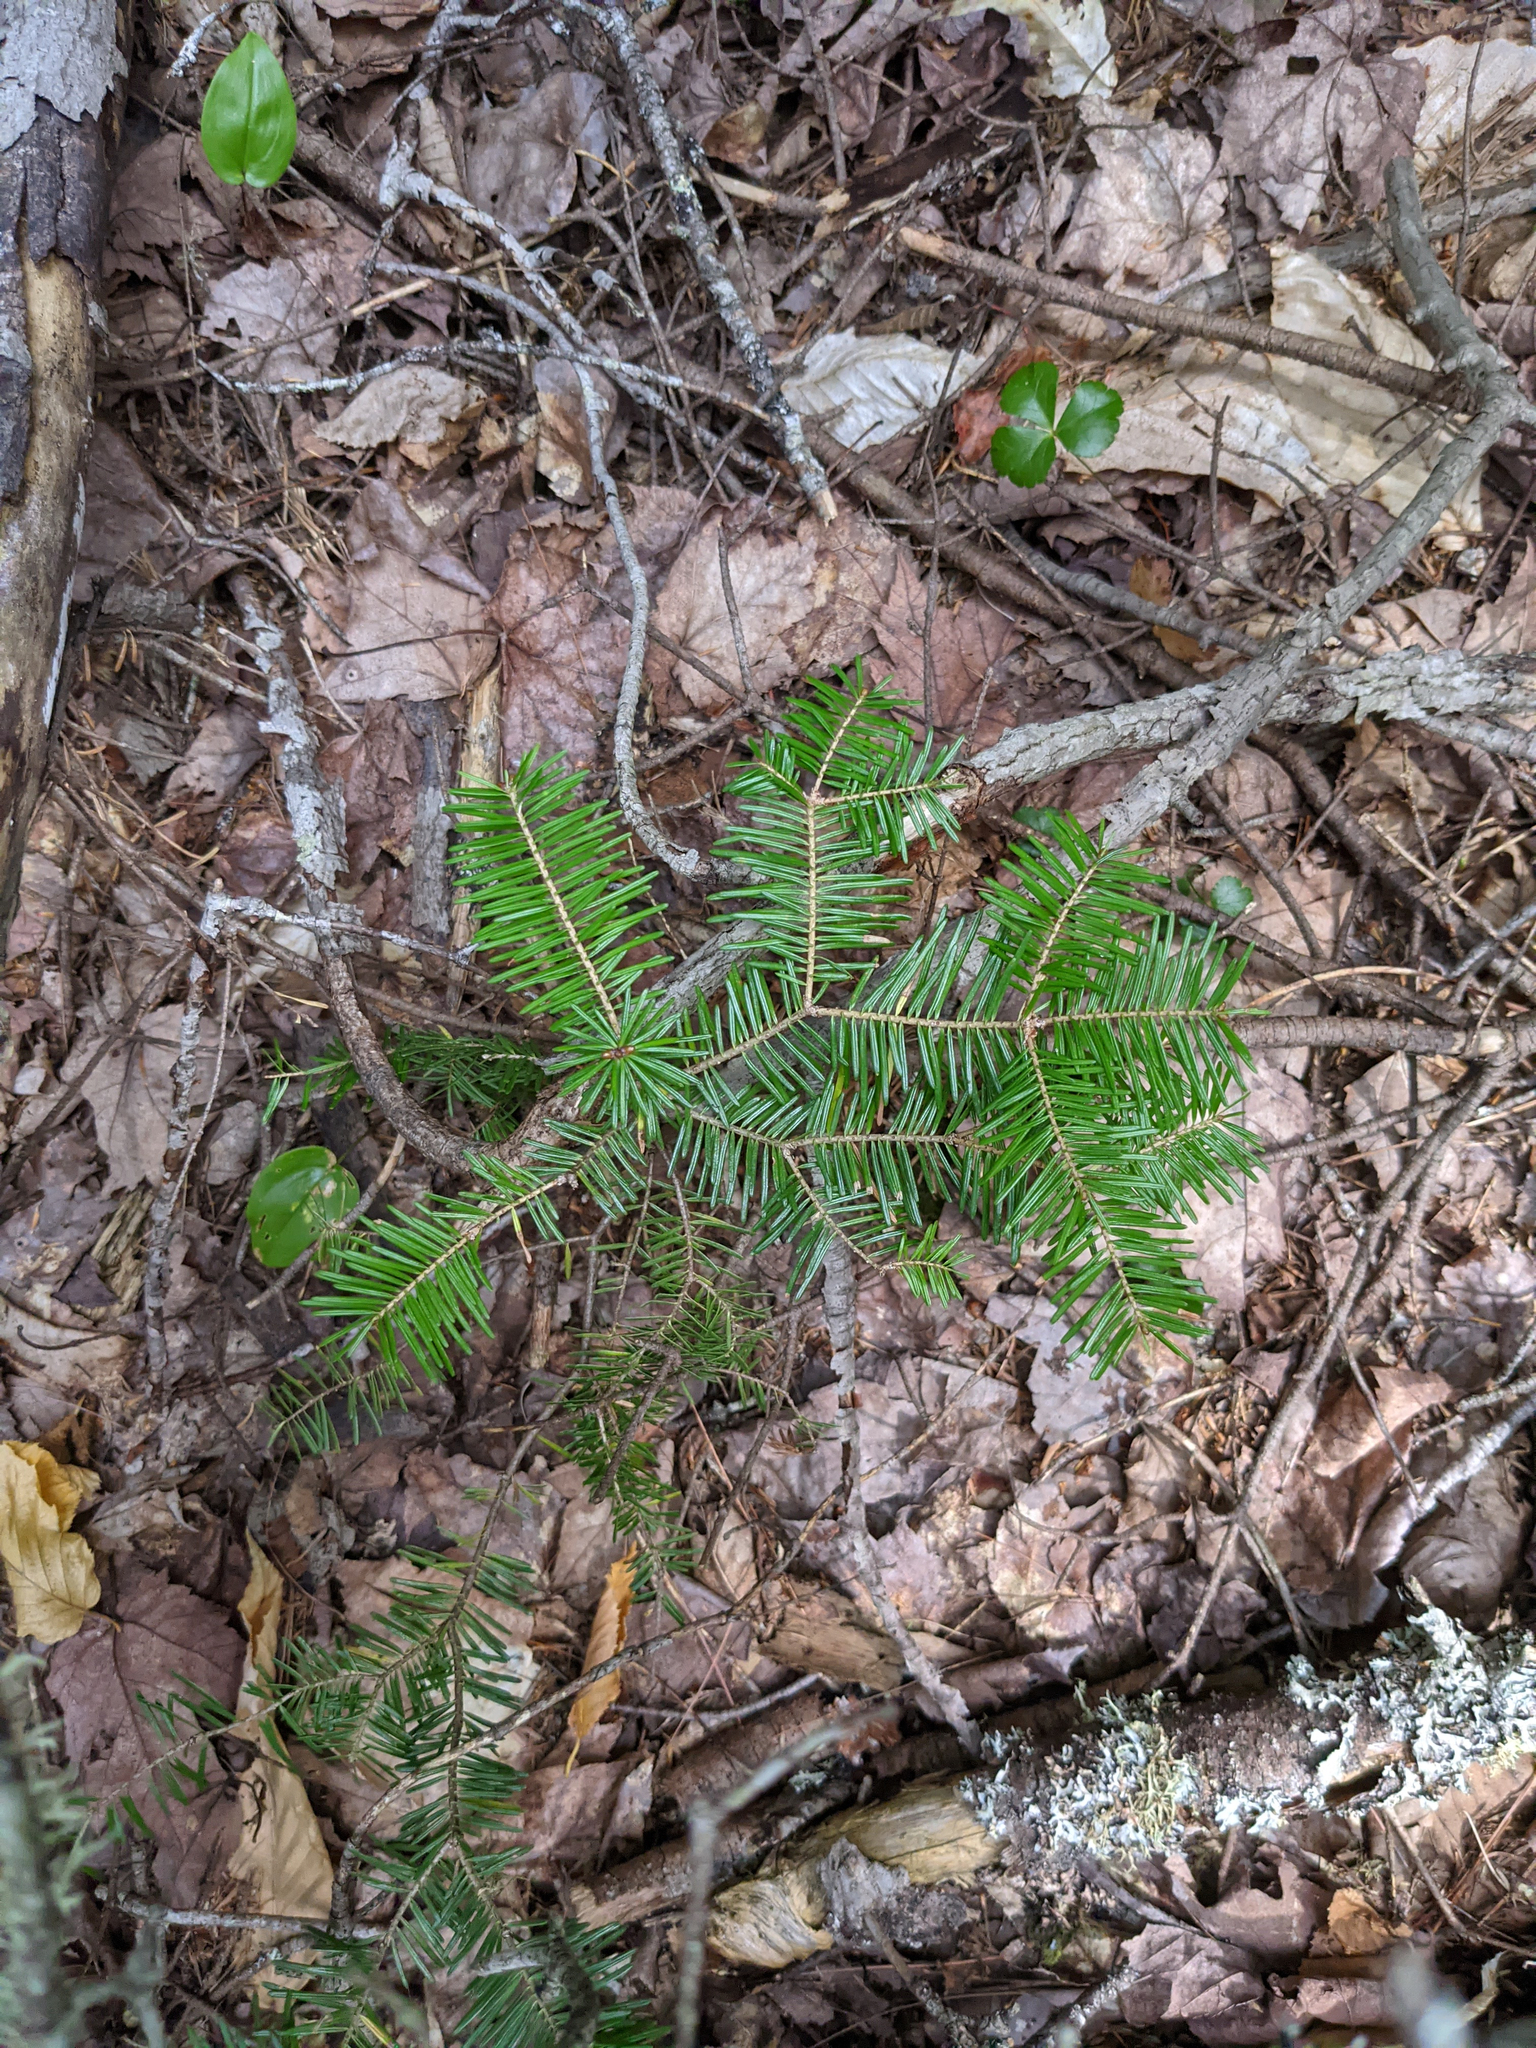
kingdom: Plantae
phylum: Tracheophyta
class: Liliopsida
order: Asparagales
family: Asparagaceae
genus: Maianthemum
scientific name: Maianthemum canadense
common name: False lily-of-the-valley
